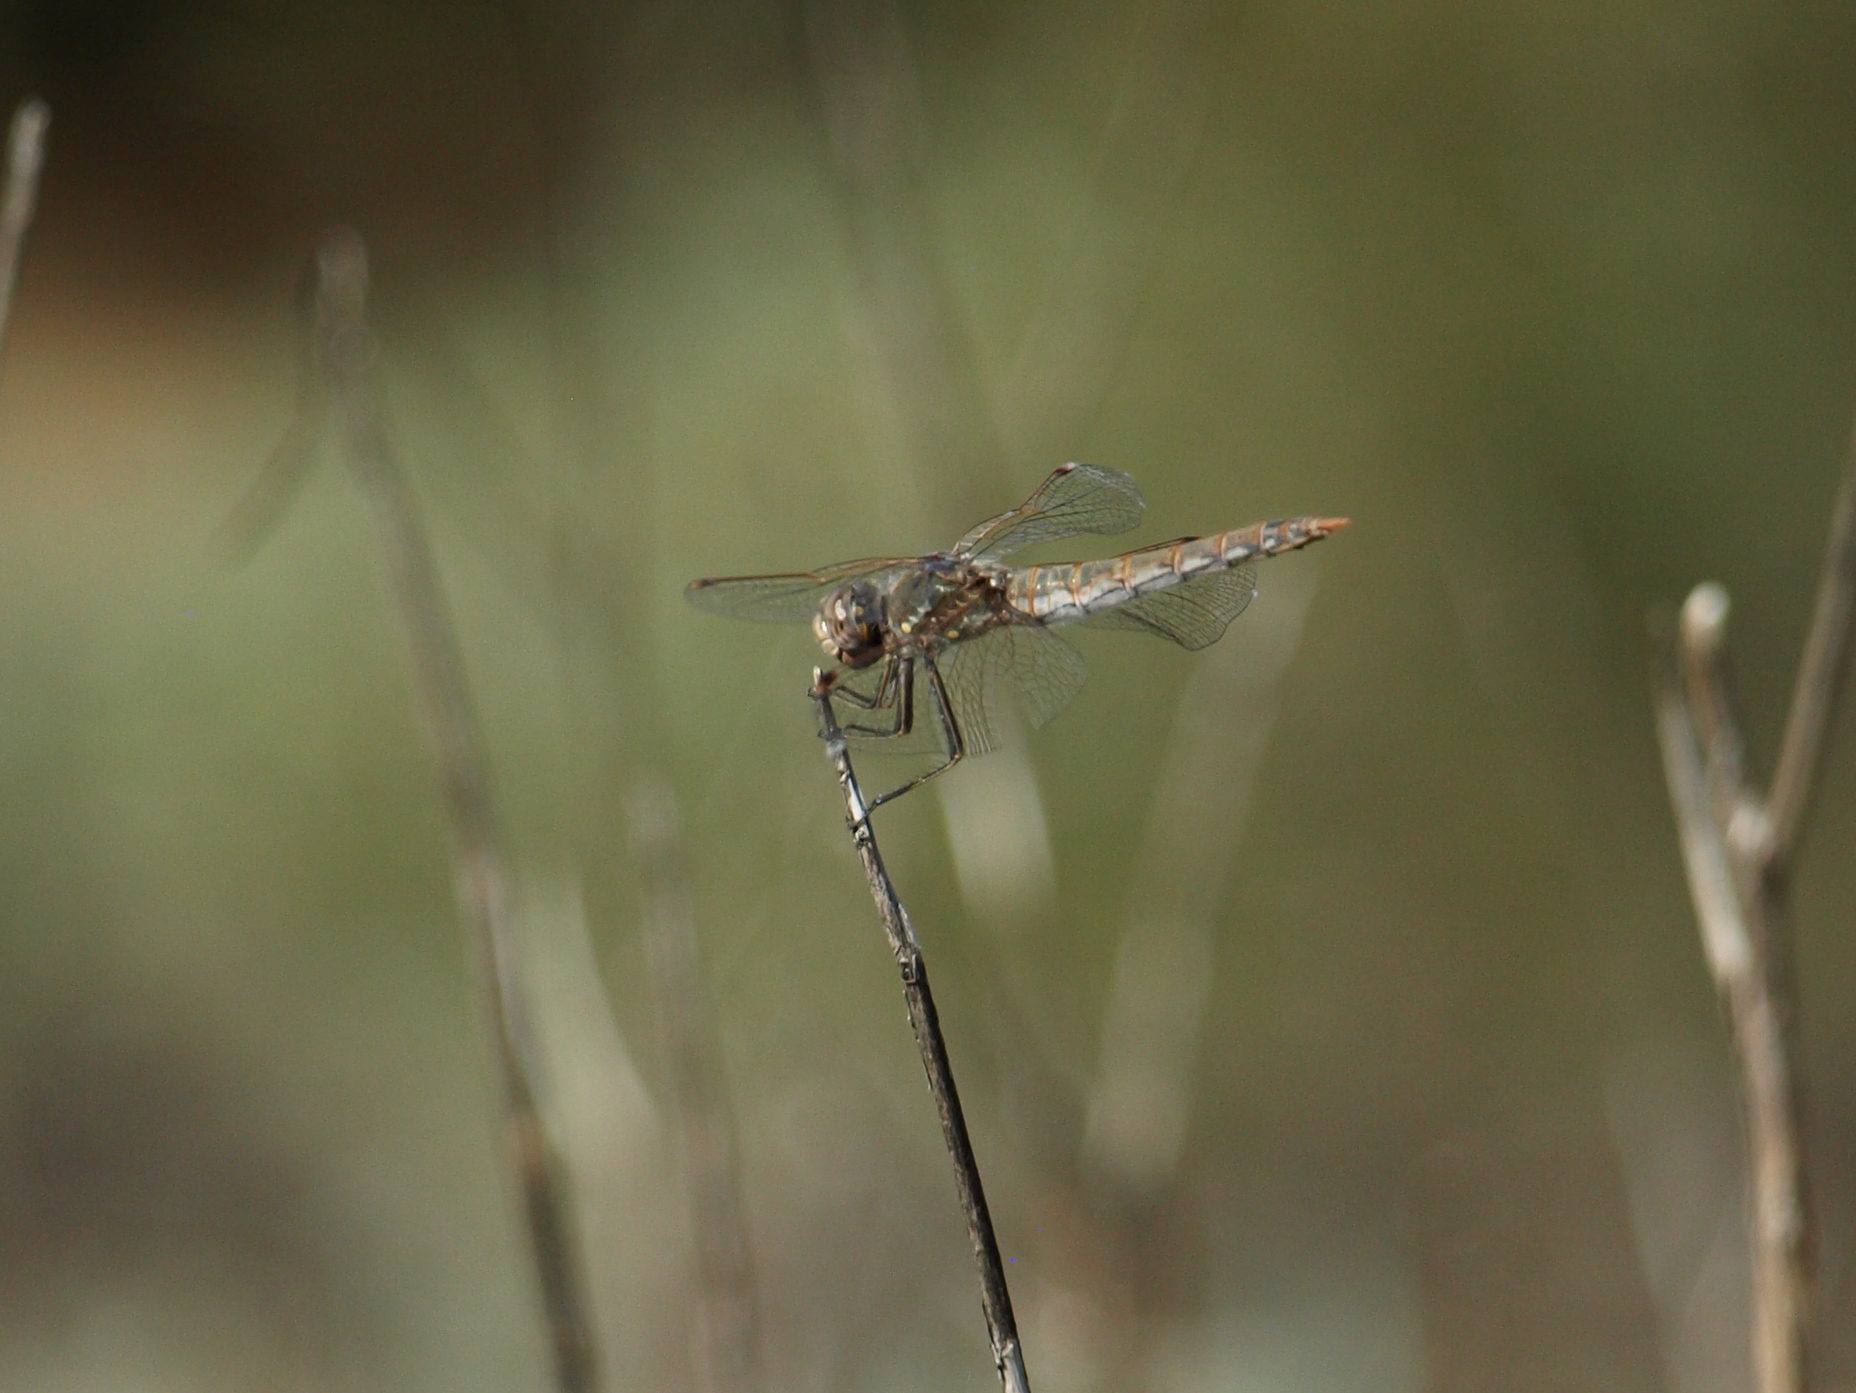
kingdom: Animalia
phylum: Arthropoda
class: Insecta
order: Odonata
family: Libellulidae
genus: Sympetrum
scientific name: Sympetrum corruptum
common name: Variegated meadowhawk
